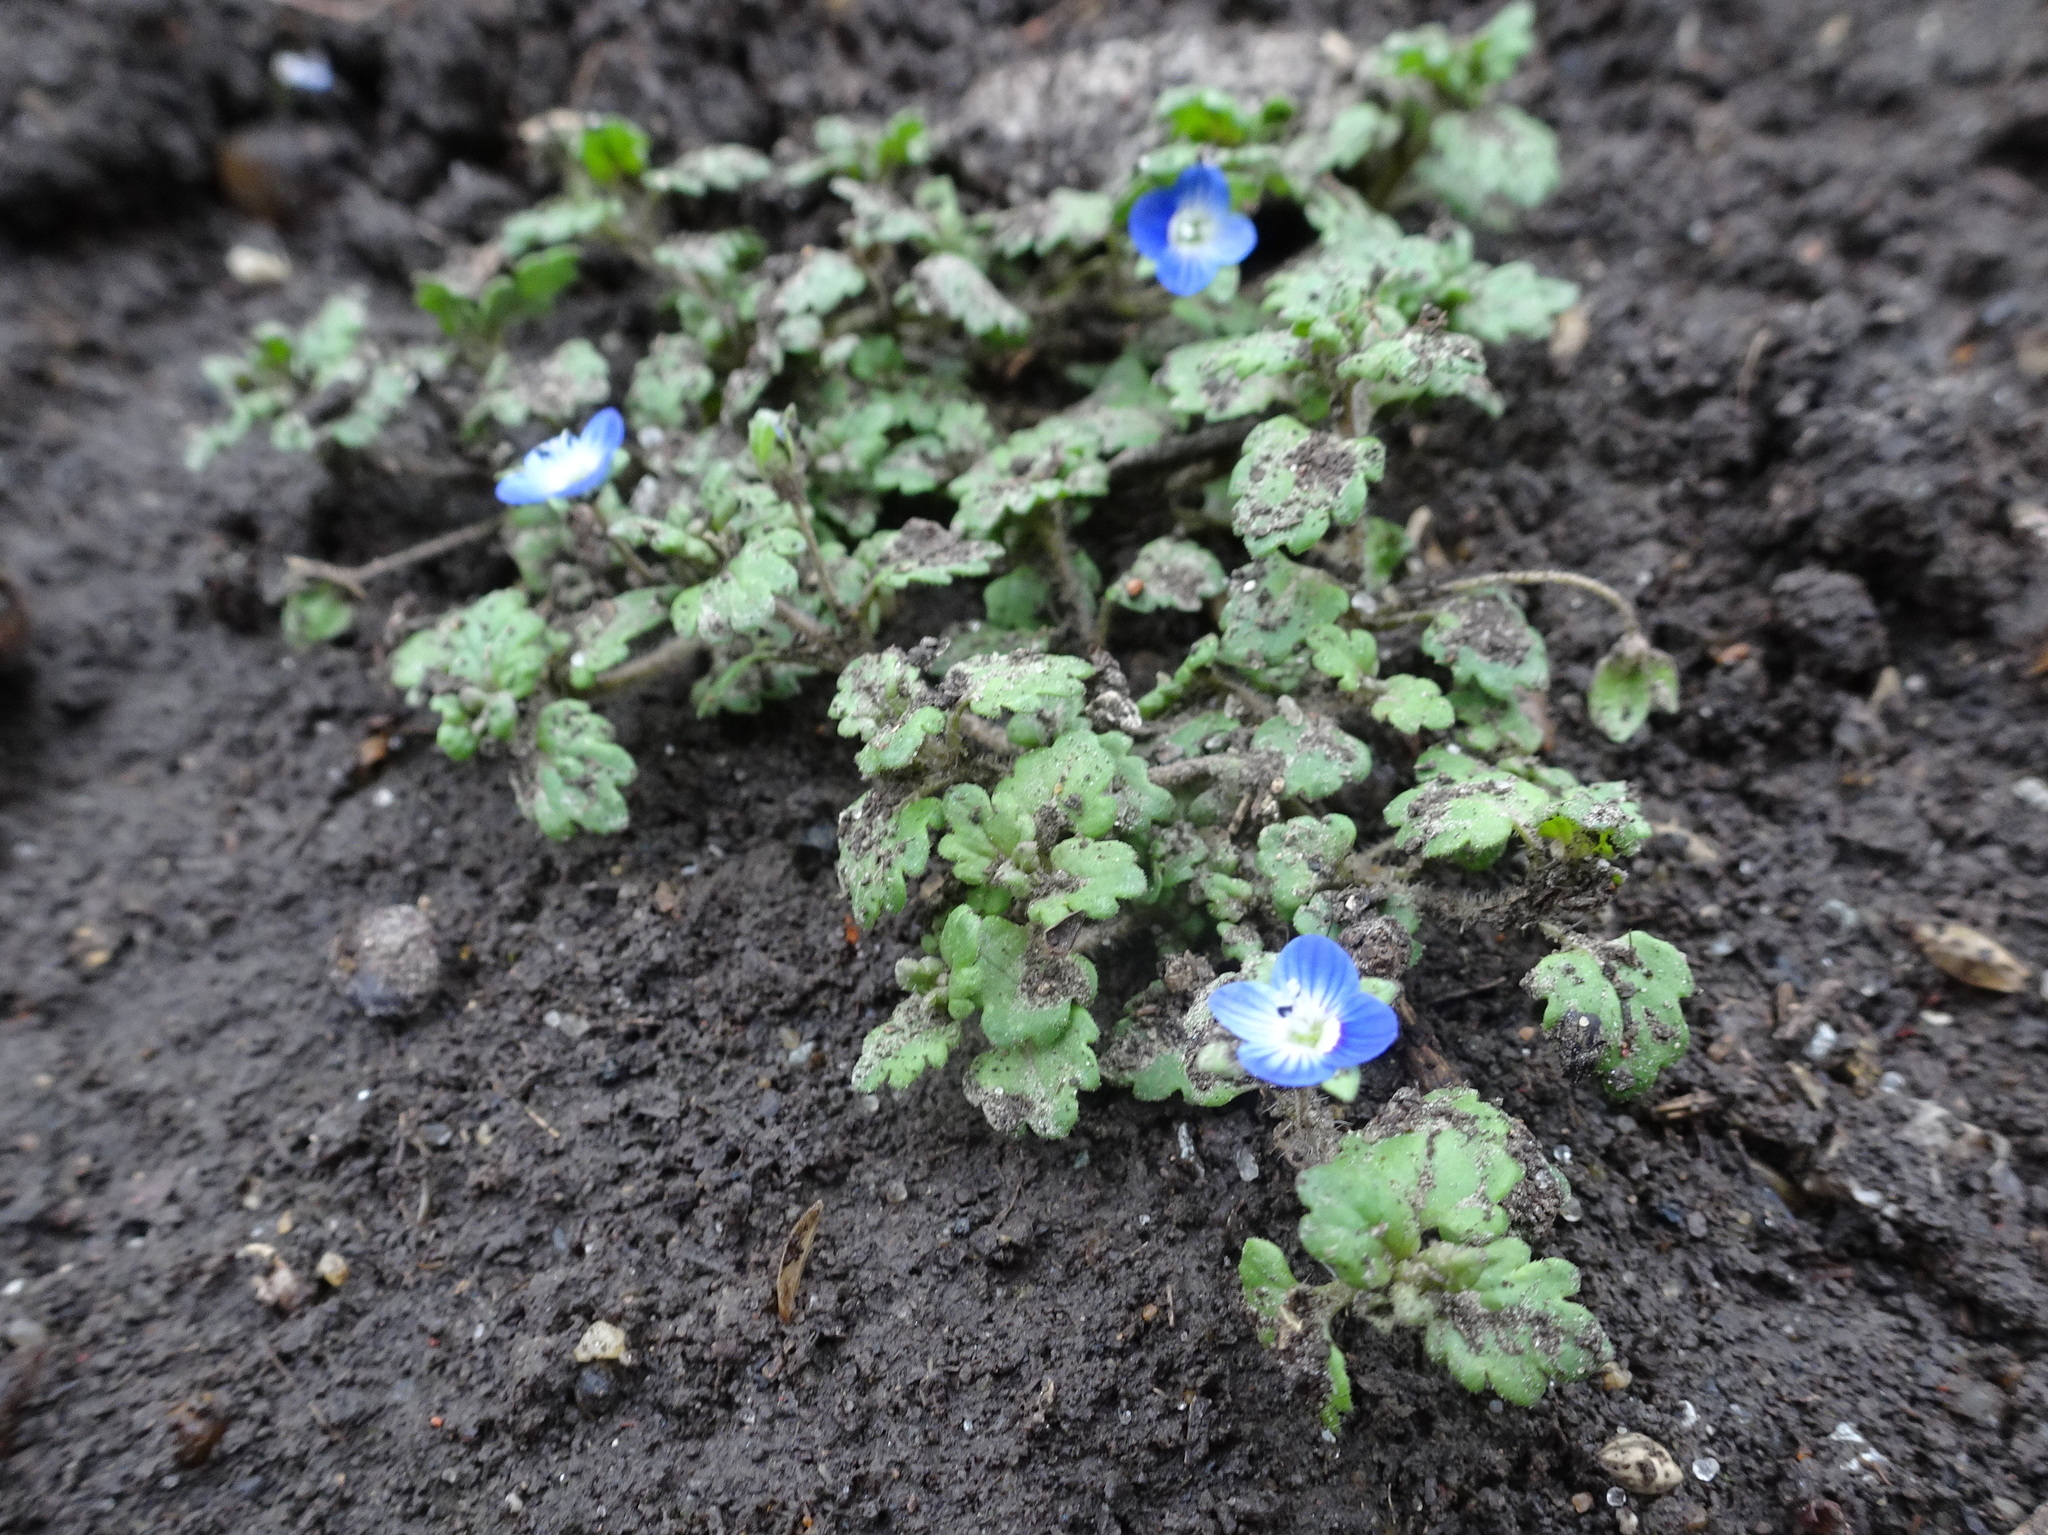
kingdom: Plantae
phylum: Tracheophyta
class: Magnoliopsida
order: Lamiales
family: Plantaginaceae
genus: Veronica
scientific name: Veronica polita
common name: Grey field-speedwell
